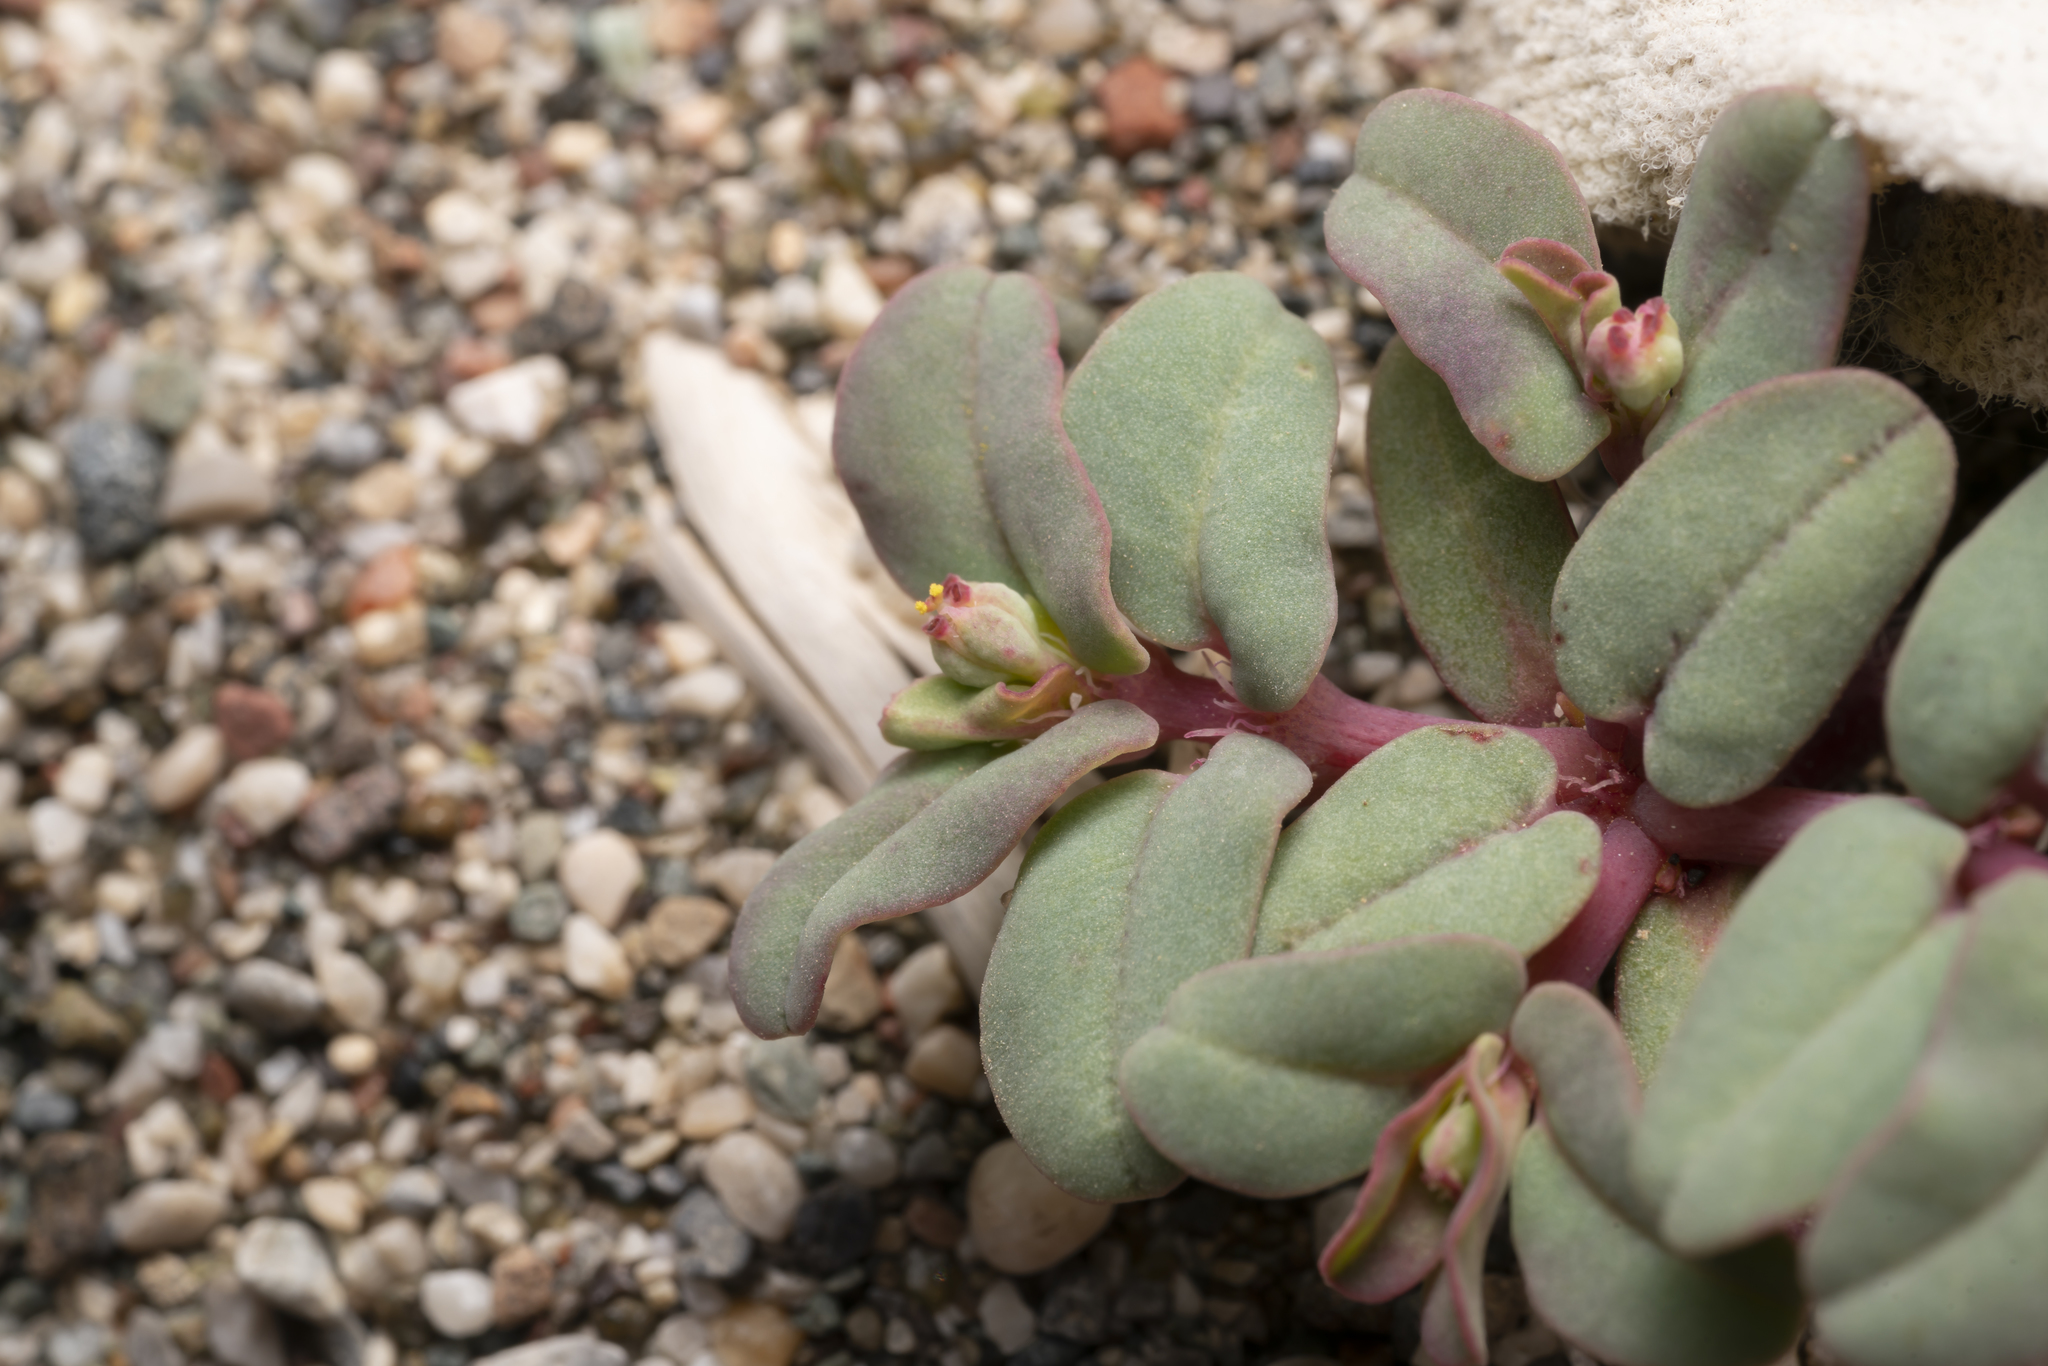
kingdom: Plantae
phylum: Tracheophyta
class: Magnoliopsida
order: Malpighiales
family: Euphorbiaceae
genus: Euphorbia
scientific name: Euphorbia peplis
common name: Purple spurge
